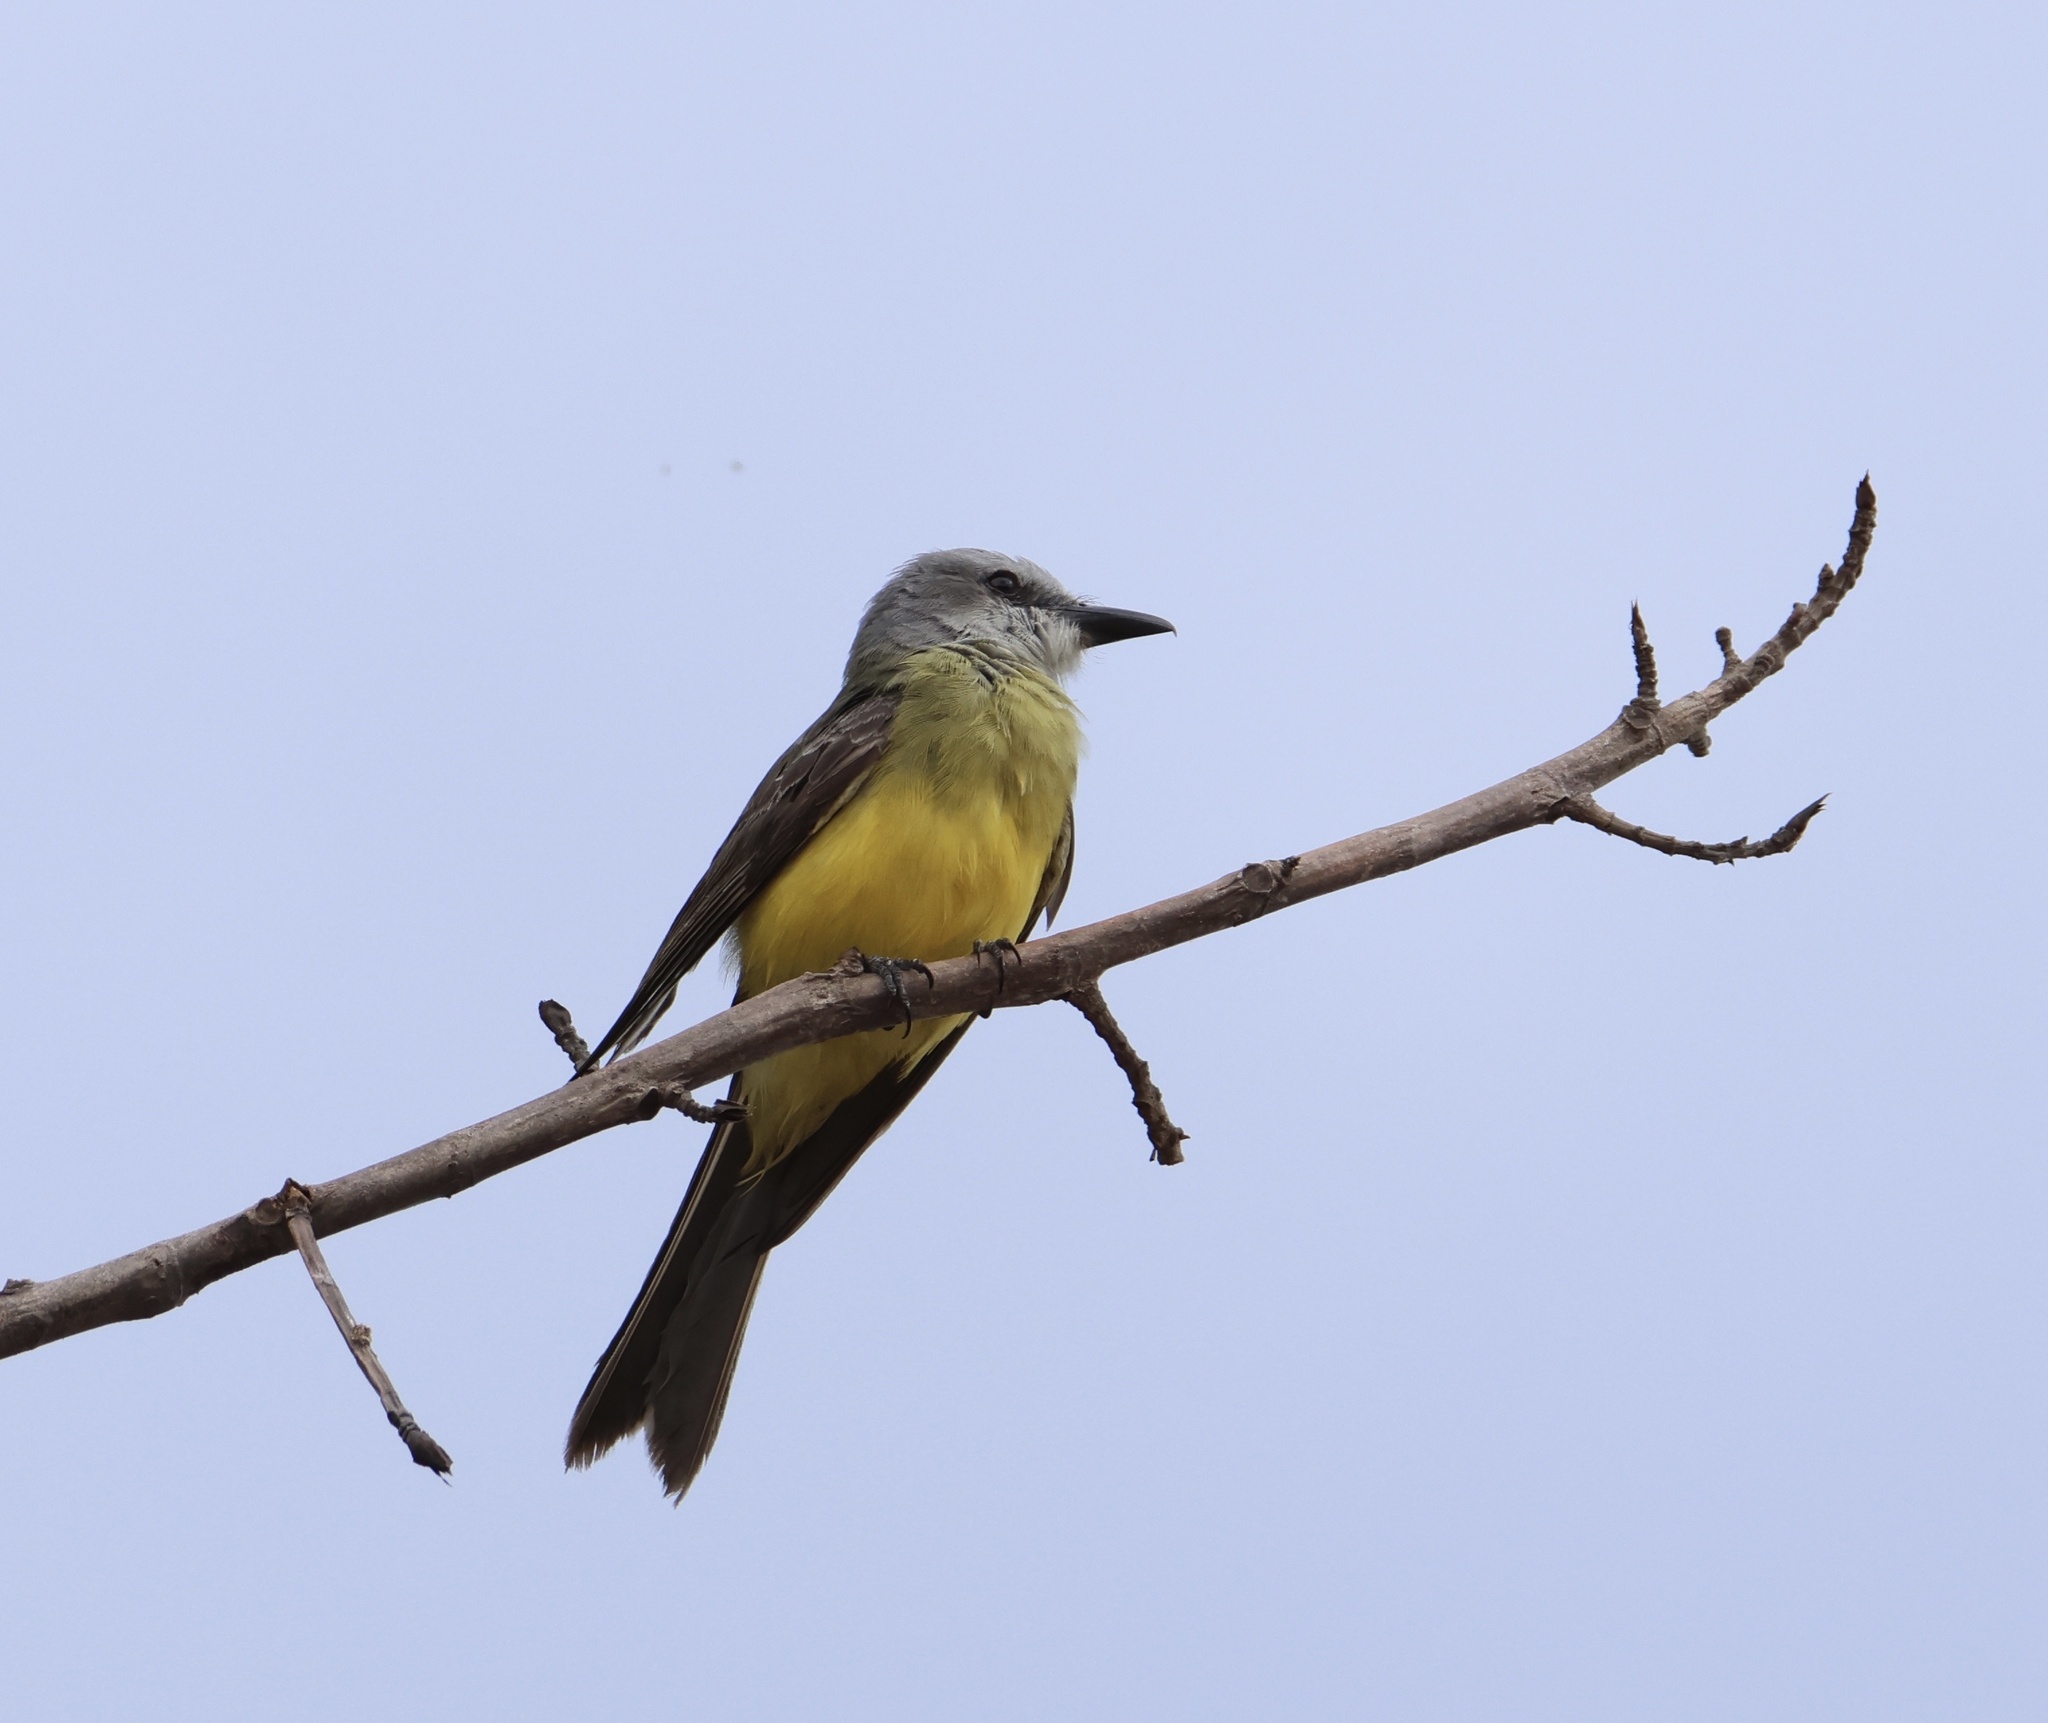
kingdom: Animalia
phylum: Chordata
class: Aves
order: Passeriformes
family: Tyrannidae
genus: Tyrannus
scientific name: Tyrannus melancholicus
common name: Tropical kingbird
